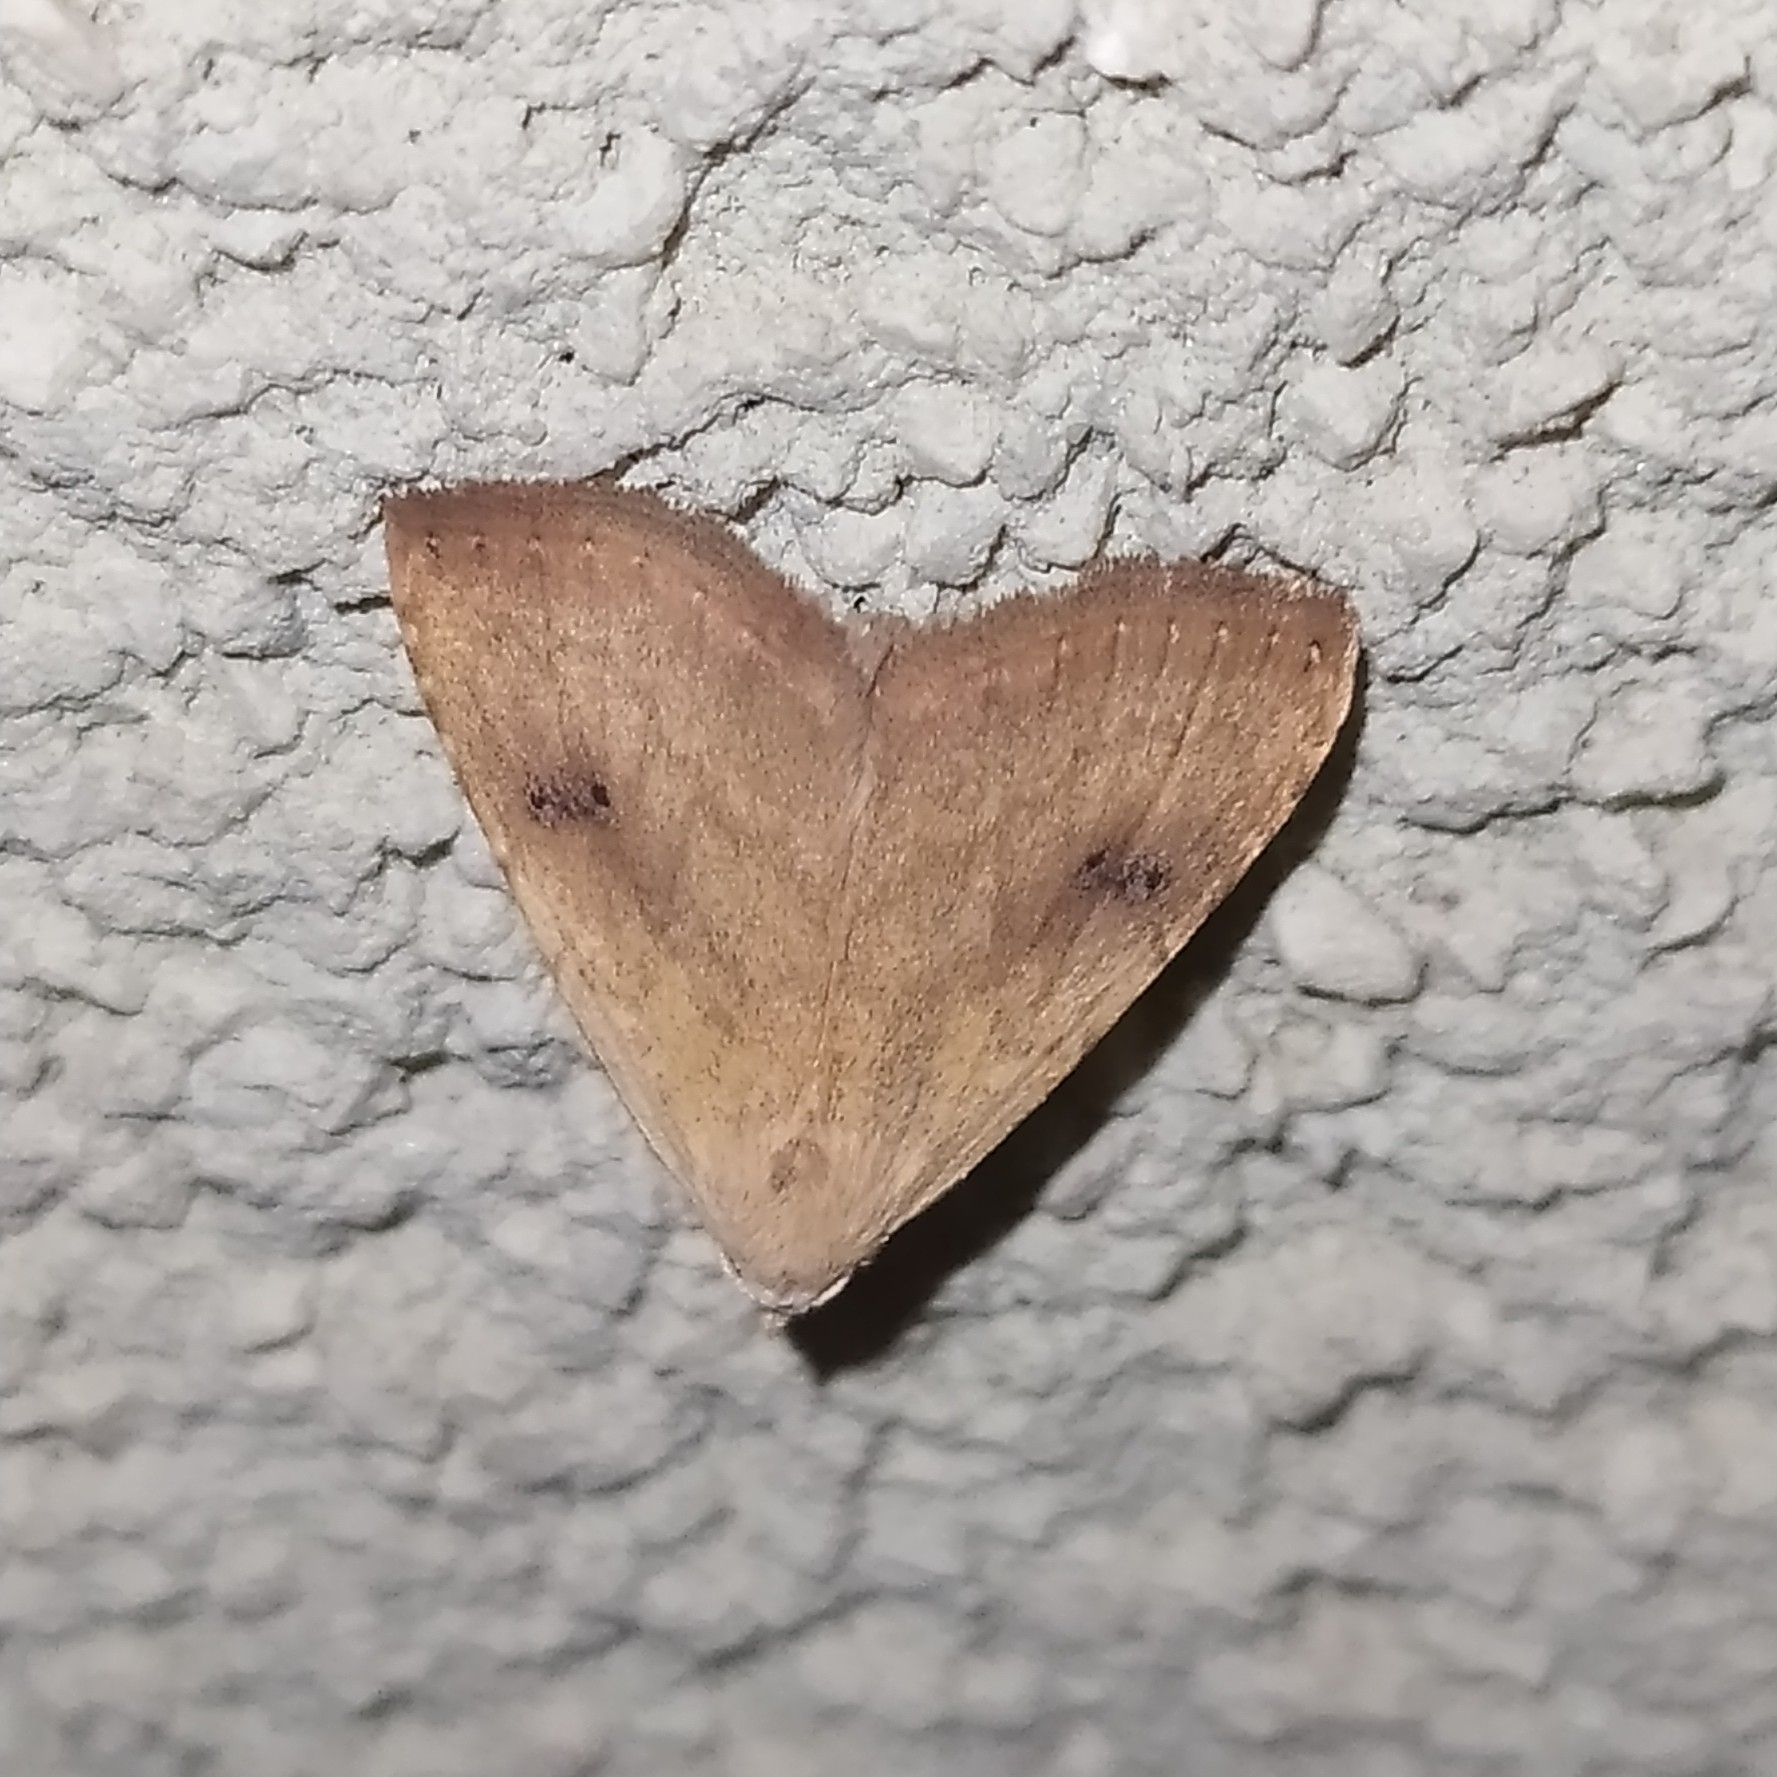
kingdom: Animalia
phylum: Arthropoda
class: Insecta
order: Lepidoptera
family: Erebidae
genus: Rivula
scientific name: Rivula sericealis
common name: Straw dot
